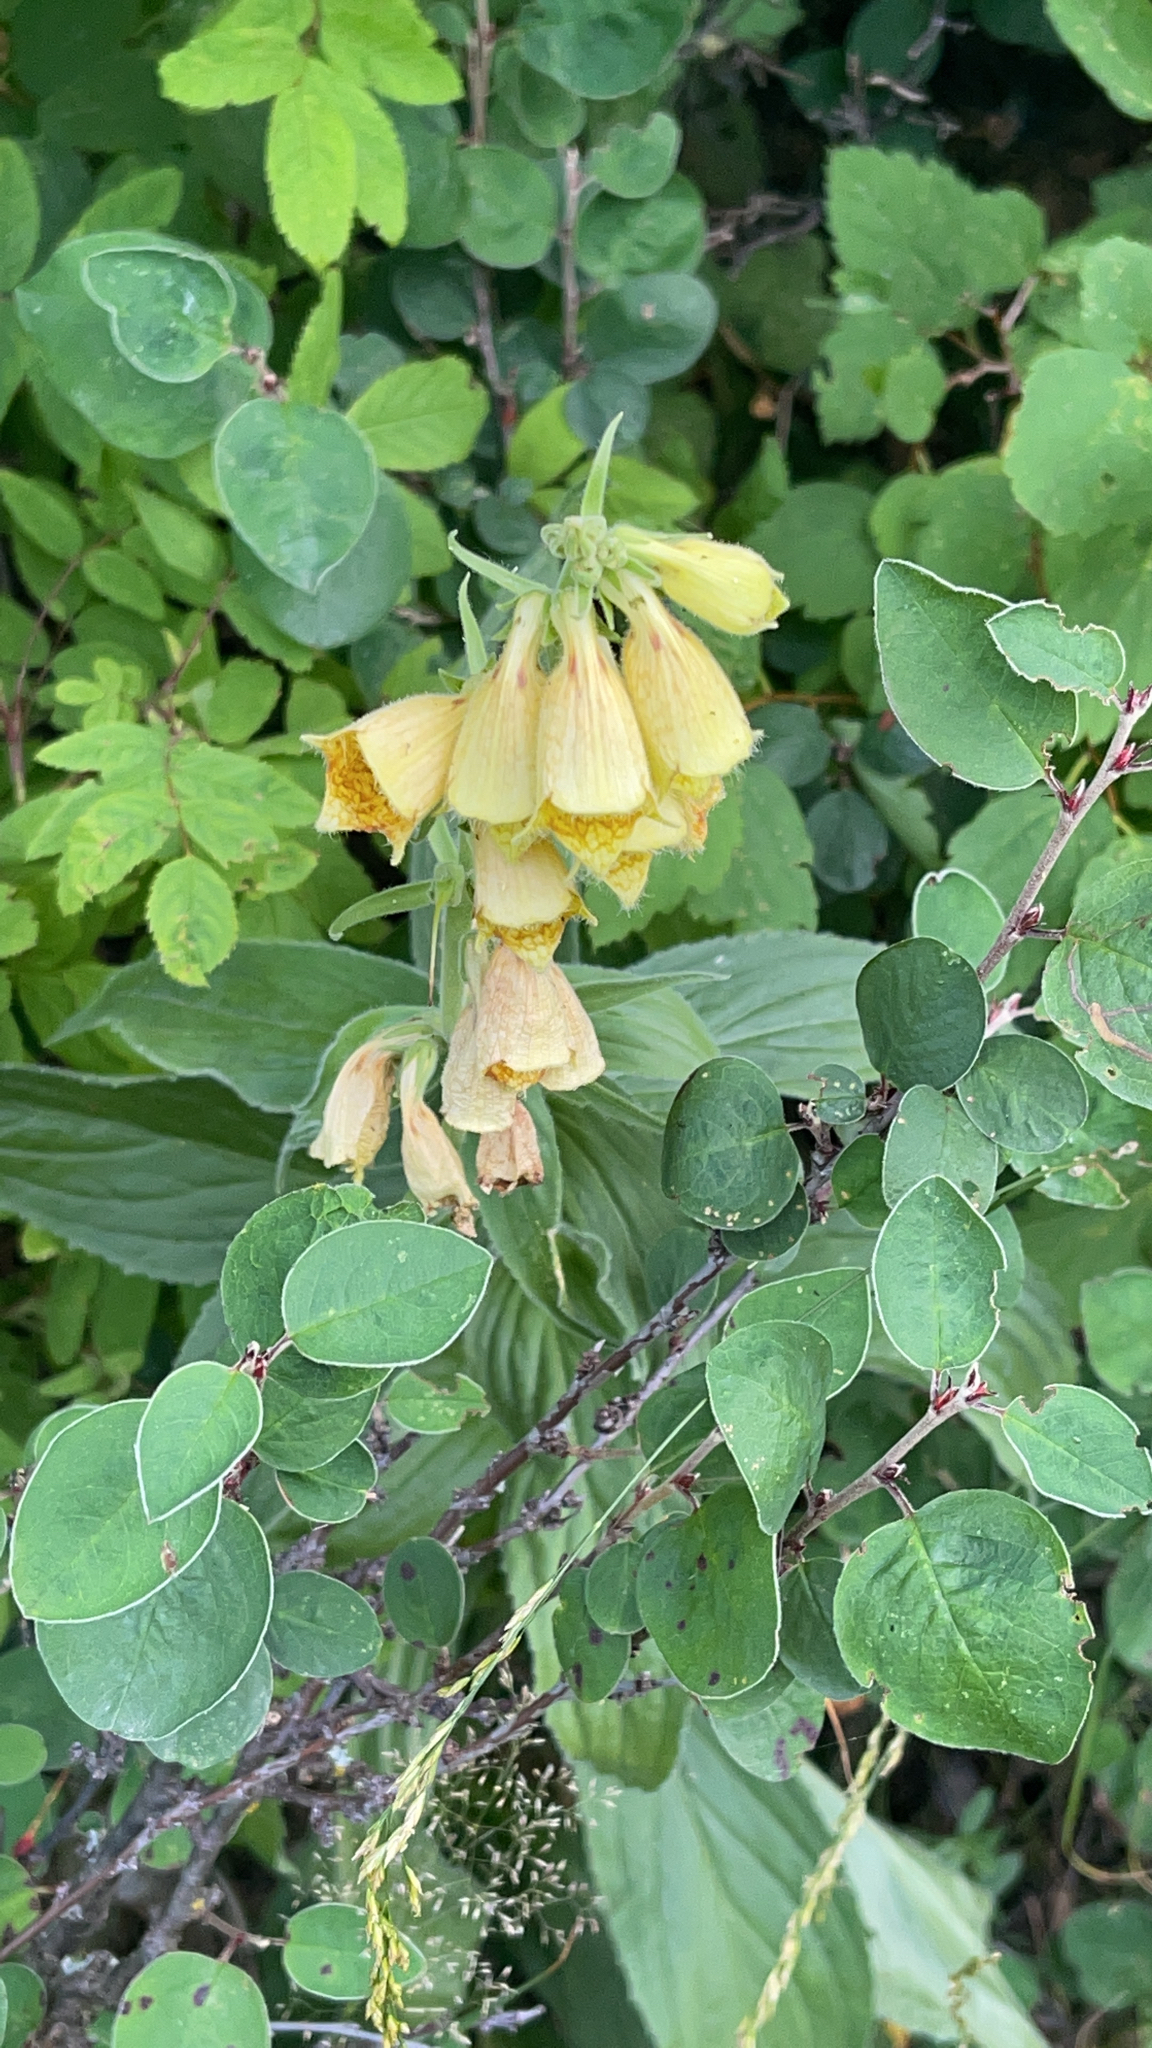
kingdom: Plantae
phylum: Tracheophyta
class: Magnoliopsida
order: Lamiales
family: Plantaginaceae
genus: Digitalis
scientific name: Digitalis grandiflora
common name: Yellow foxglove
